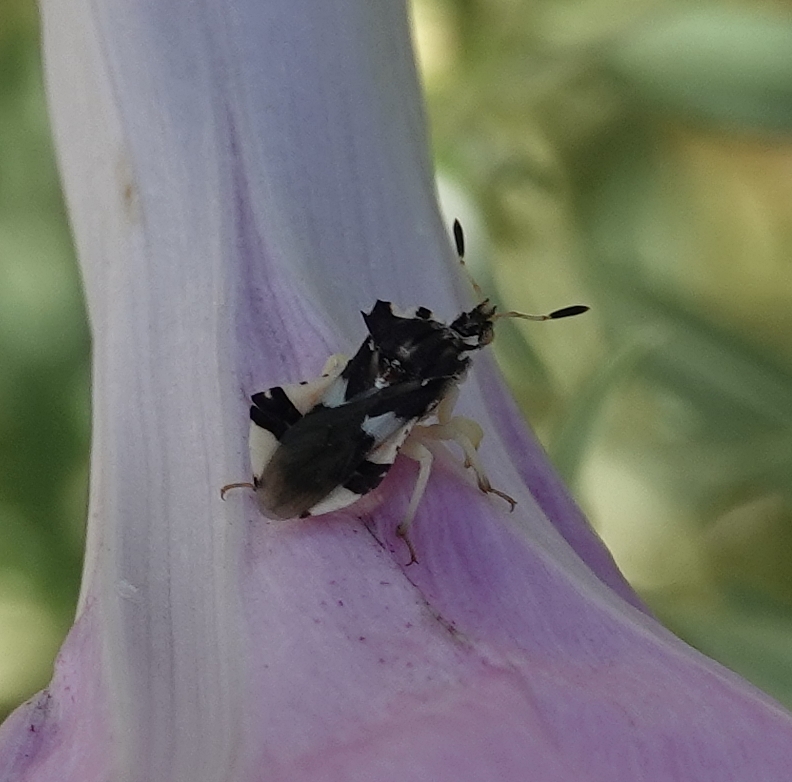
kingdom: Animalia
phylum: Arthropoda
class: Insecta
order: Hemiptera
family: Reduviidae
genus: Phymata
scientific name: Phymata americana
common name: Jagged ambush bug
